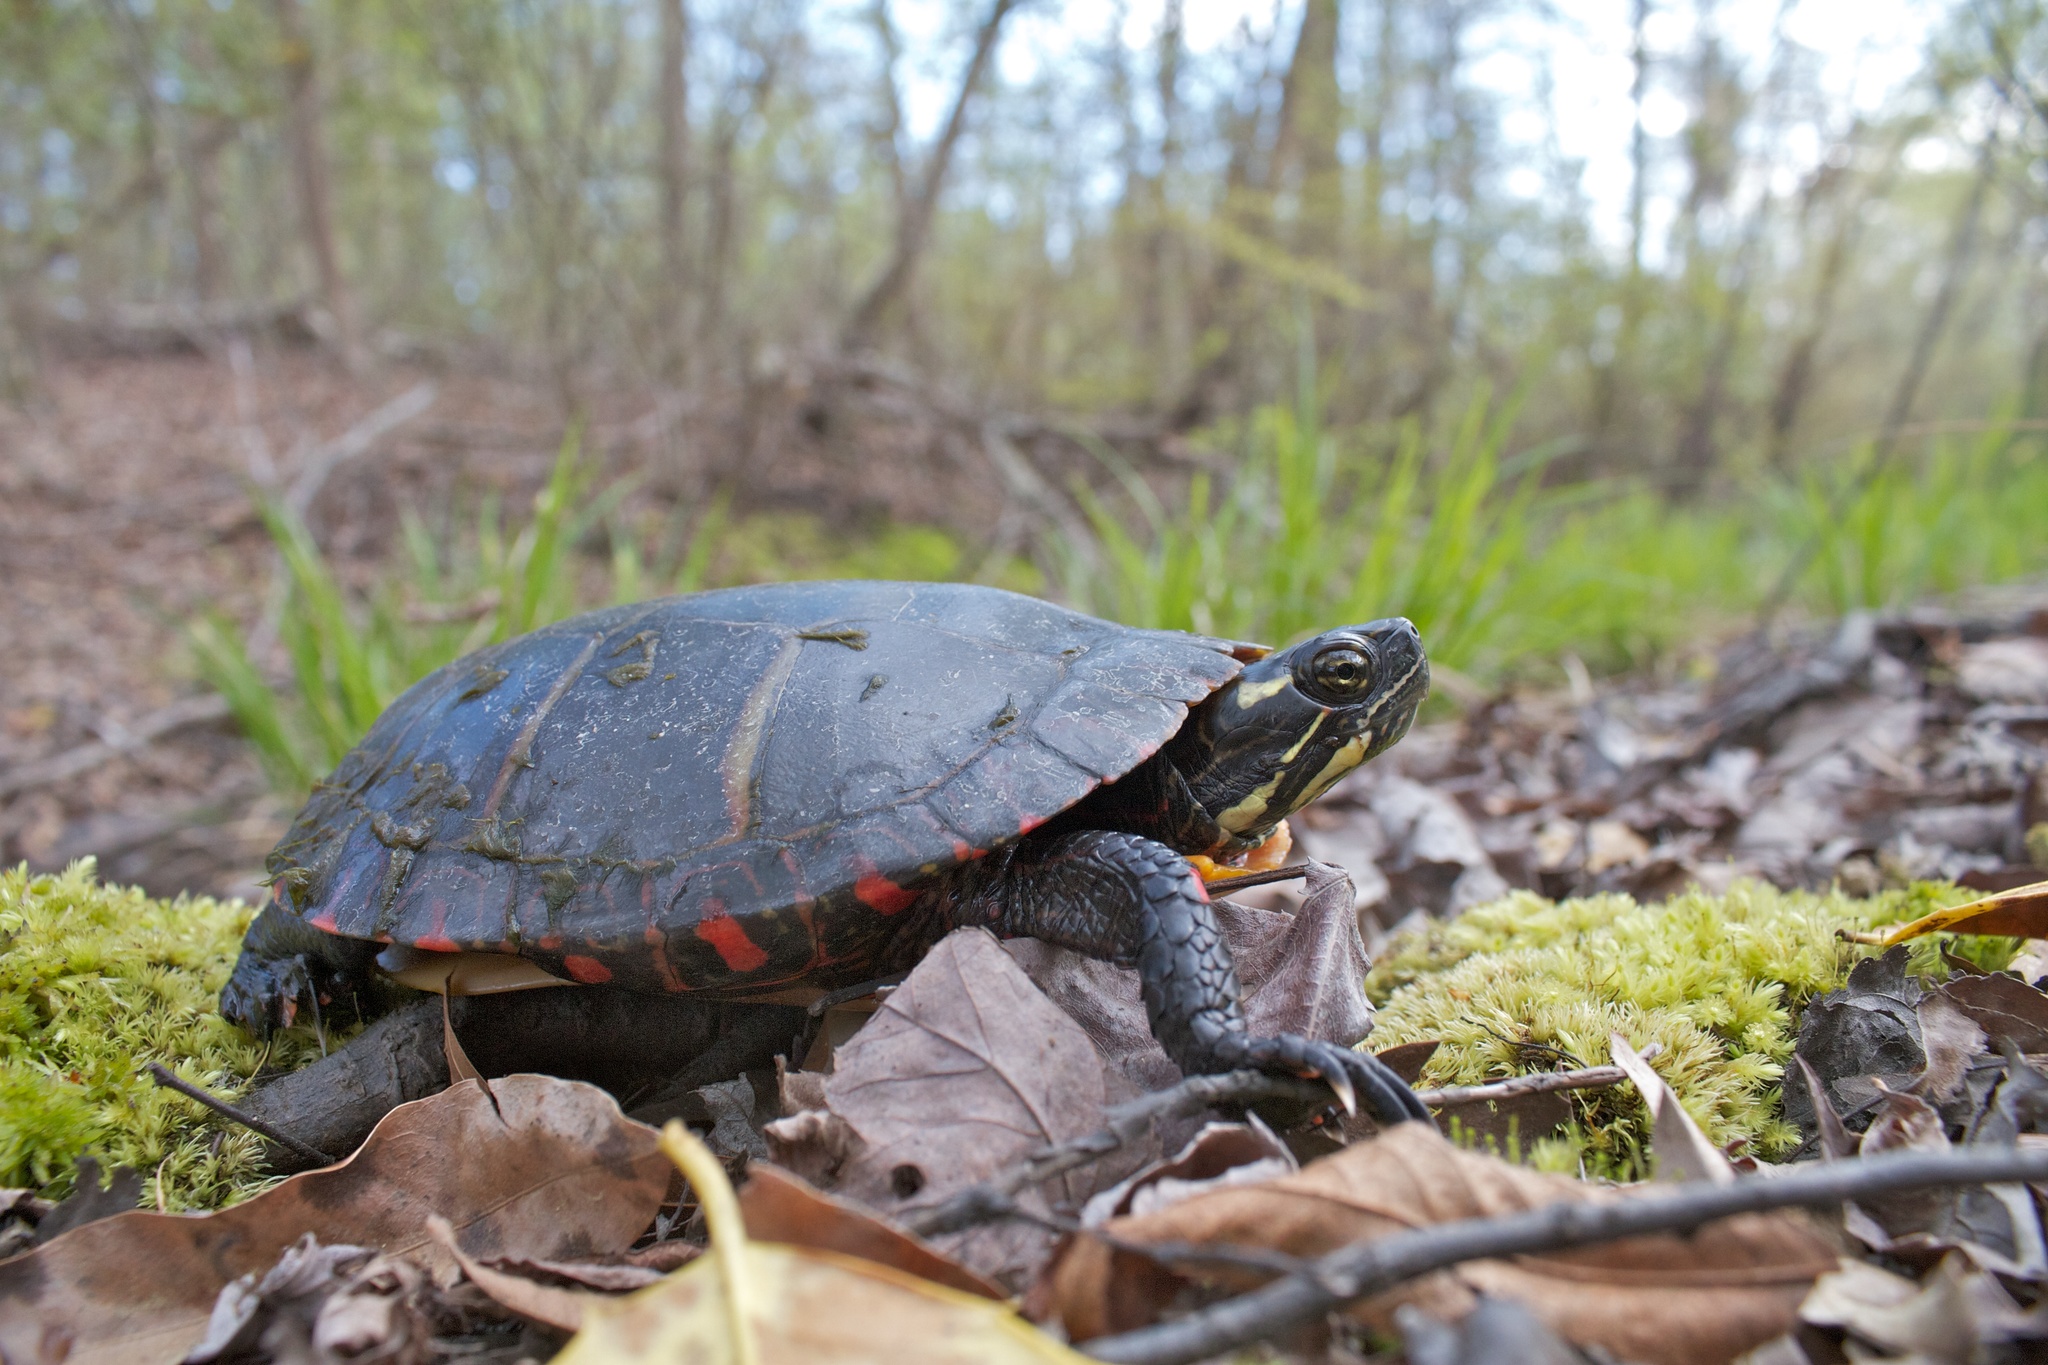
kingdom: Animalia
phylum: Chordata
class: Testudines
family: Emydidae
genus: Chrysemys
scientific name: Chrysemys picta
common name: Painted turtle
